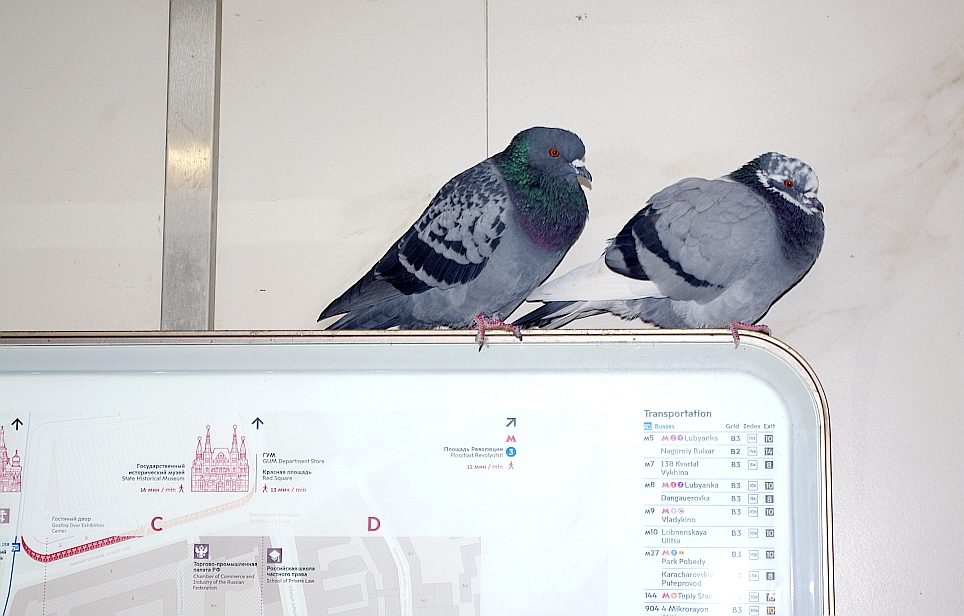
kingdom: Animalia
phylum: Chordata
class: Aves
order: Columbiformes
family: Columbidae
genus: Columba
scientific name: Columba livia
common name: Rock pigeon
